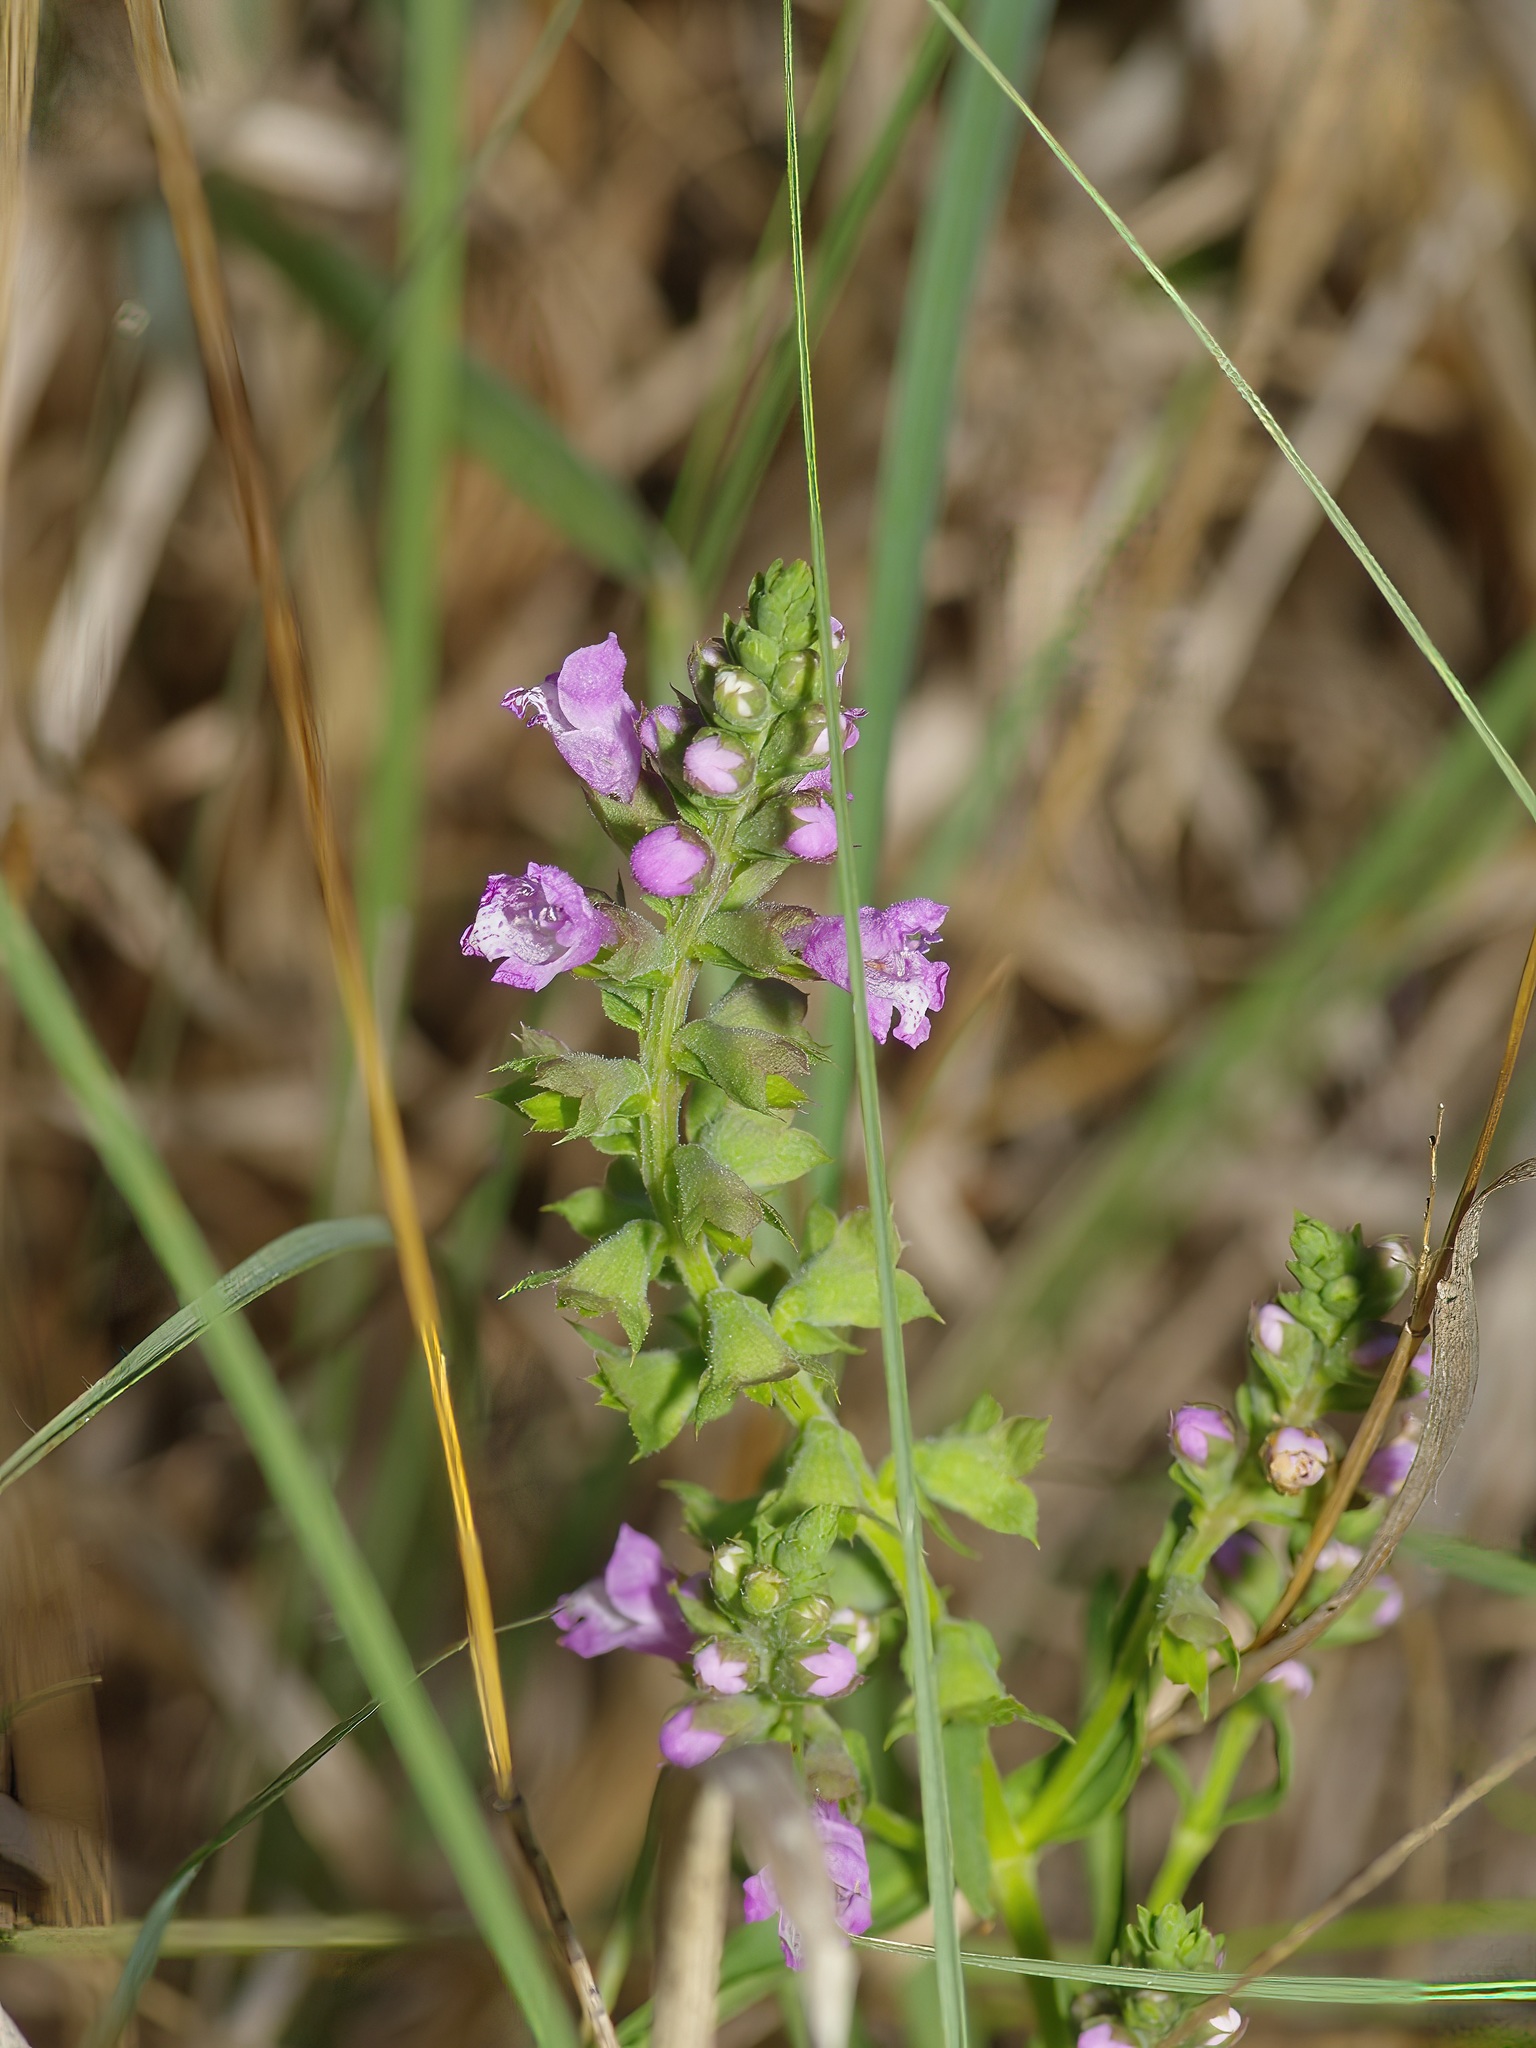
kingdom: Plantae
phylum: Tracheophyta
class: Magnoliopsida
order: Lamiales
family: Lamiaceae
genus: Warnockia
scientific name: Warnockia scutellarioides
